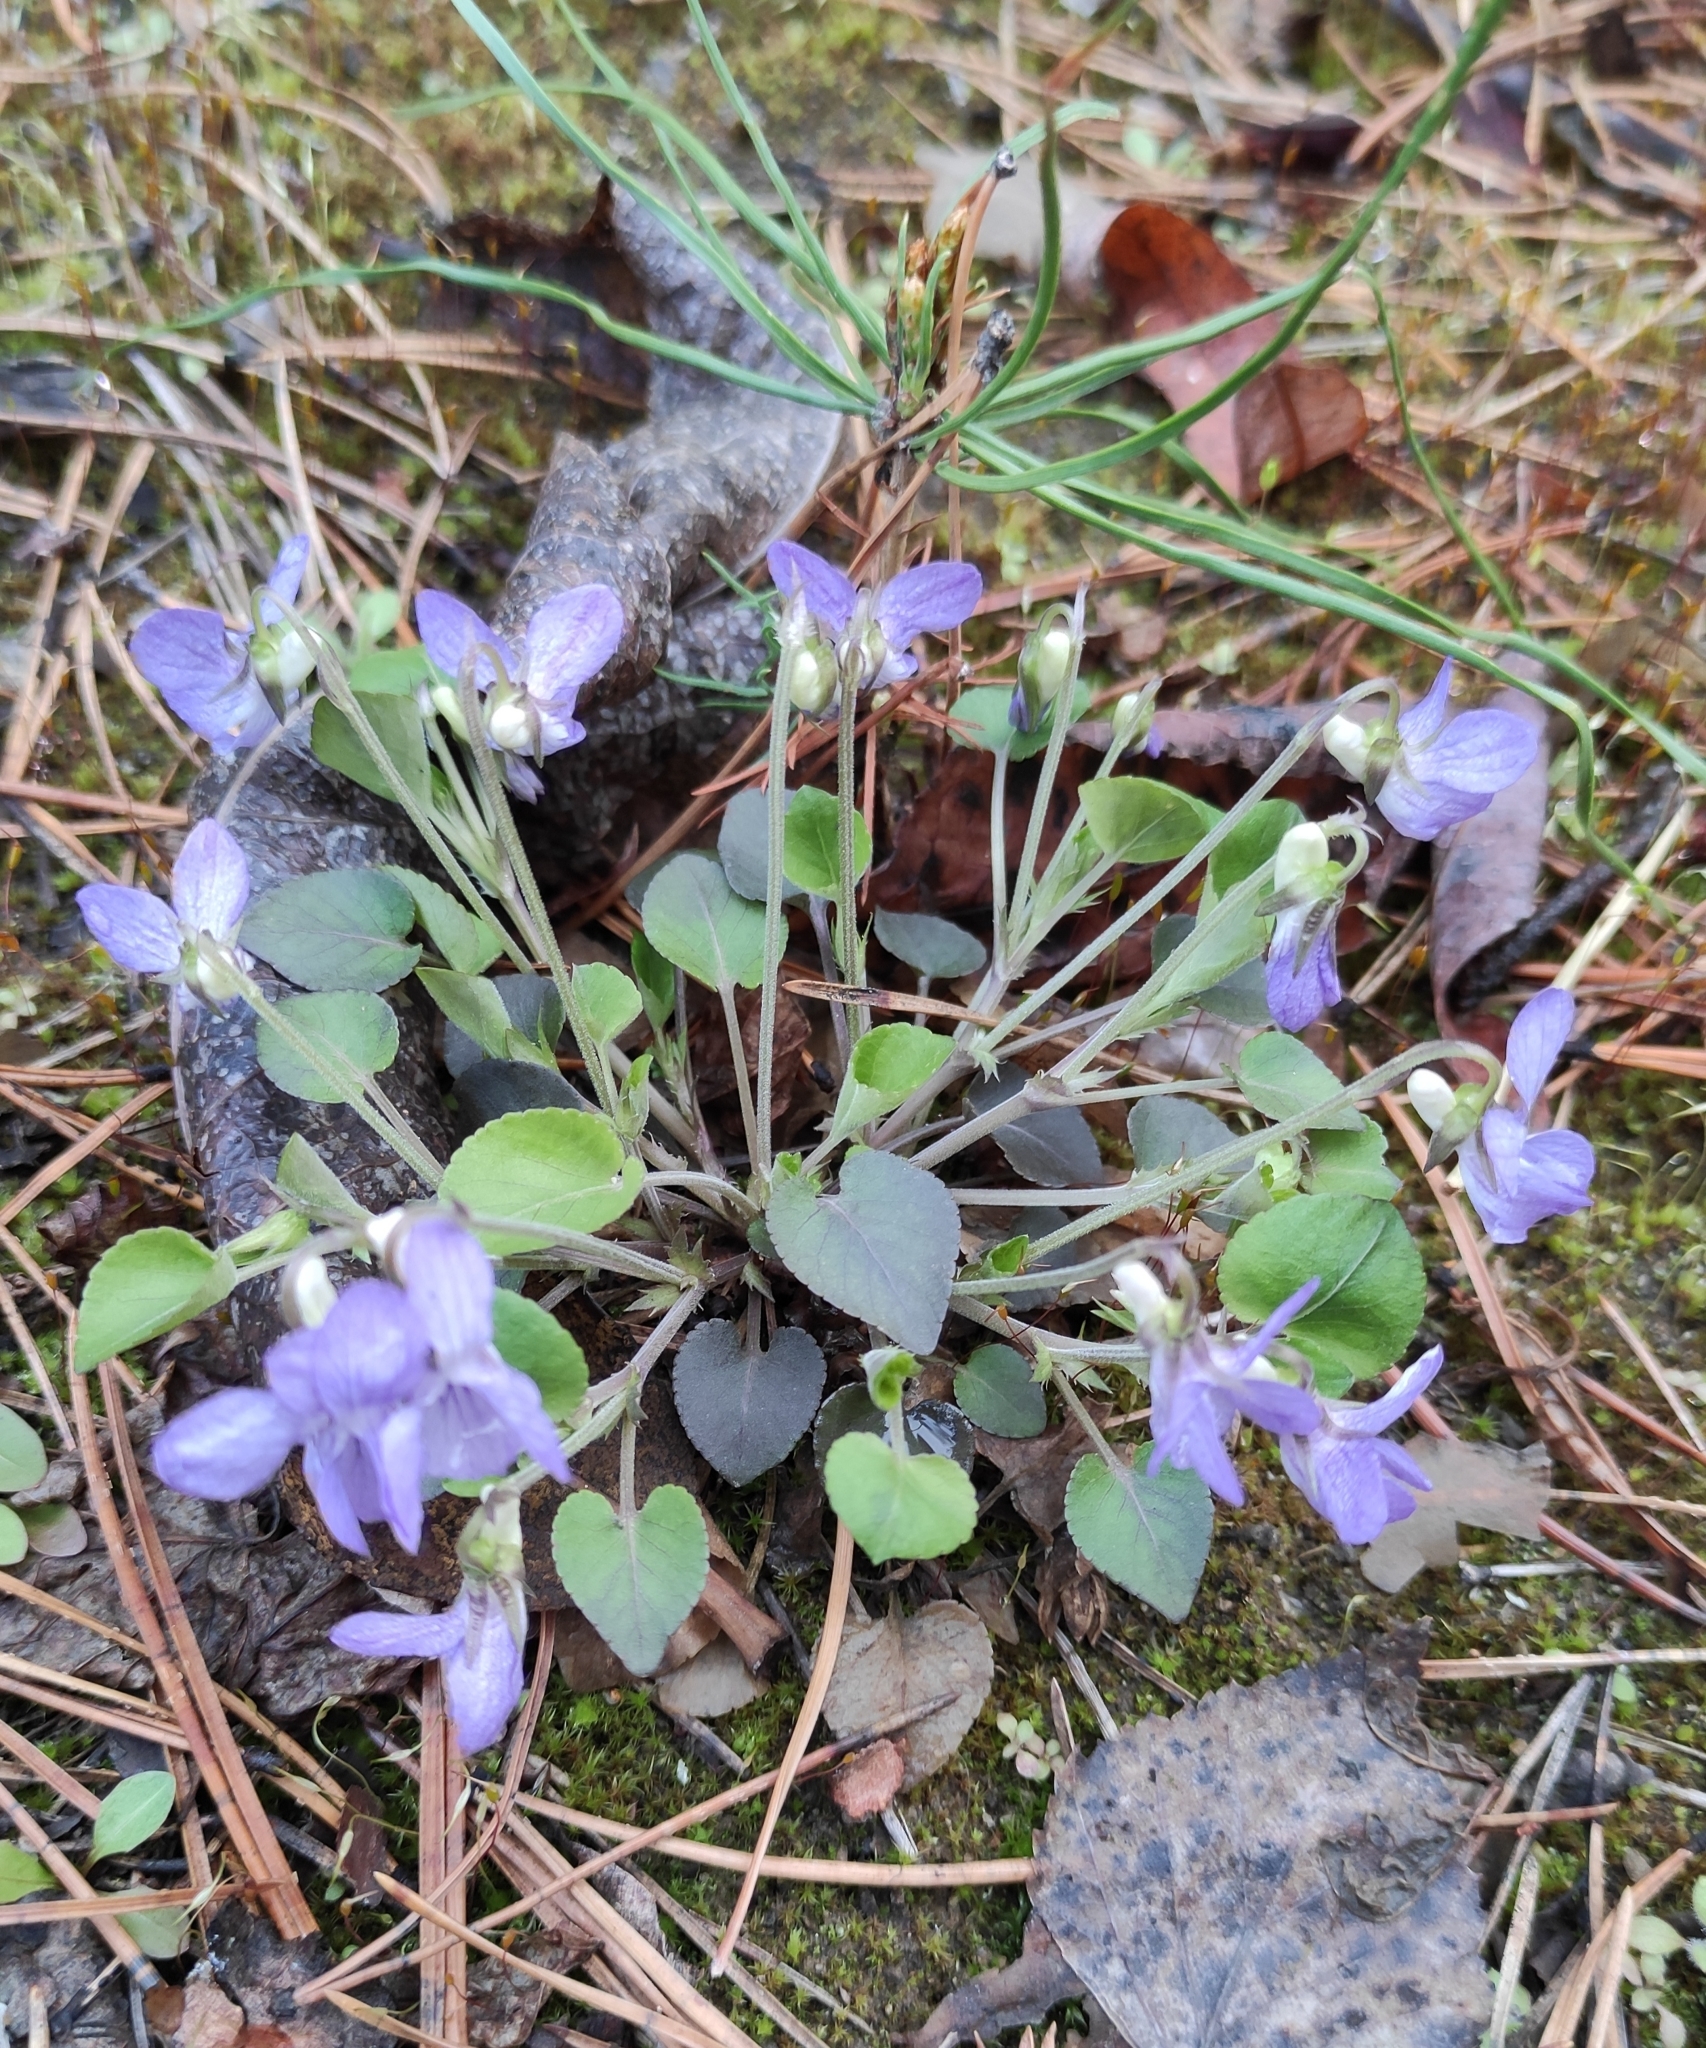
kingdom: Plantae
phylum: Tracheophyta
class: Magnoliopsida
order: Malpighiales
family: Violaceae
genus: Viola
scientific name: Viola rupestris
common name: Teesdale violet
